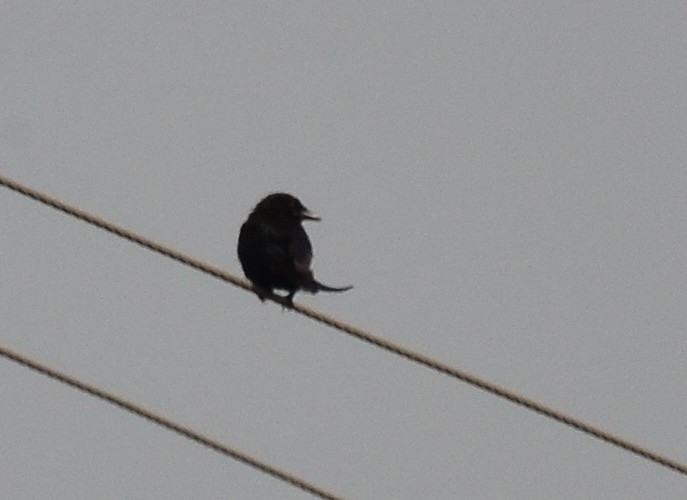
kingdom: Animalia
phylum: Chordata
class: Aves
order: Passeriformes
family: Dicruridae
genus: Dicrurus
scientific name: Dicrurus macrocercus
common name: Black drongo
